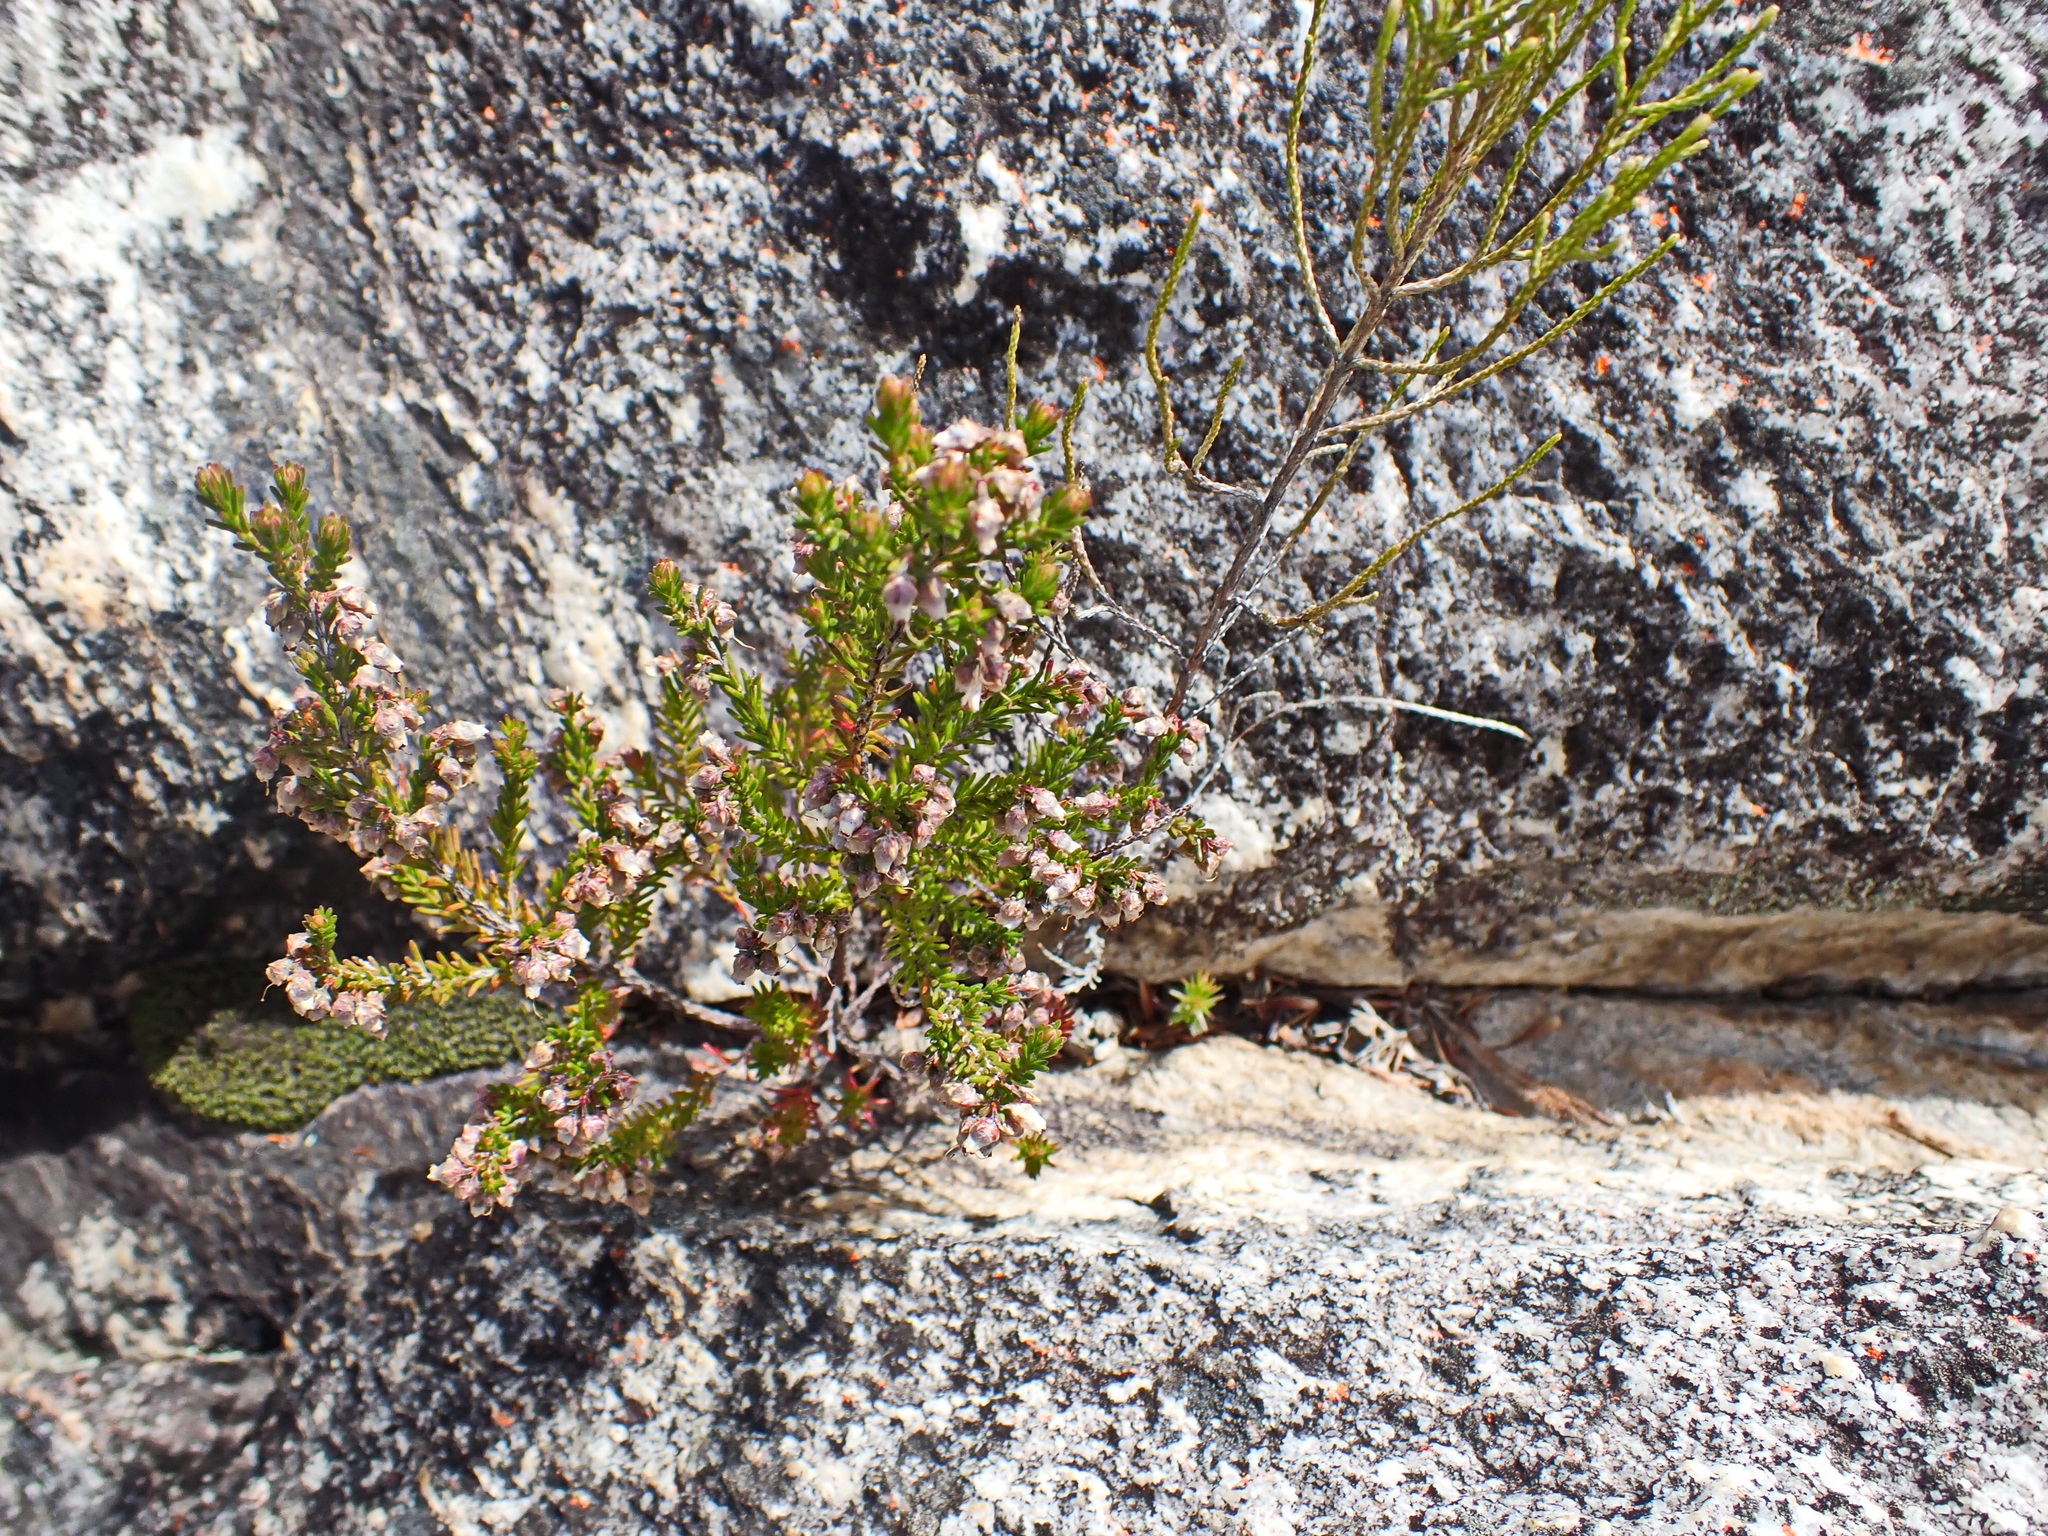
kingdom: Plantae
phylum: Tracheophyta
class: Magnoliopsida
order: Ericales
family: Ericaceae
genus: Erica
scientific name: Erica vlokii
